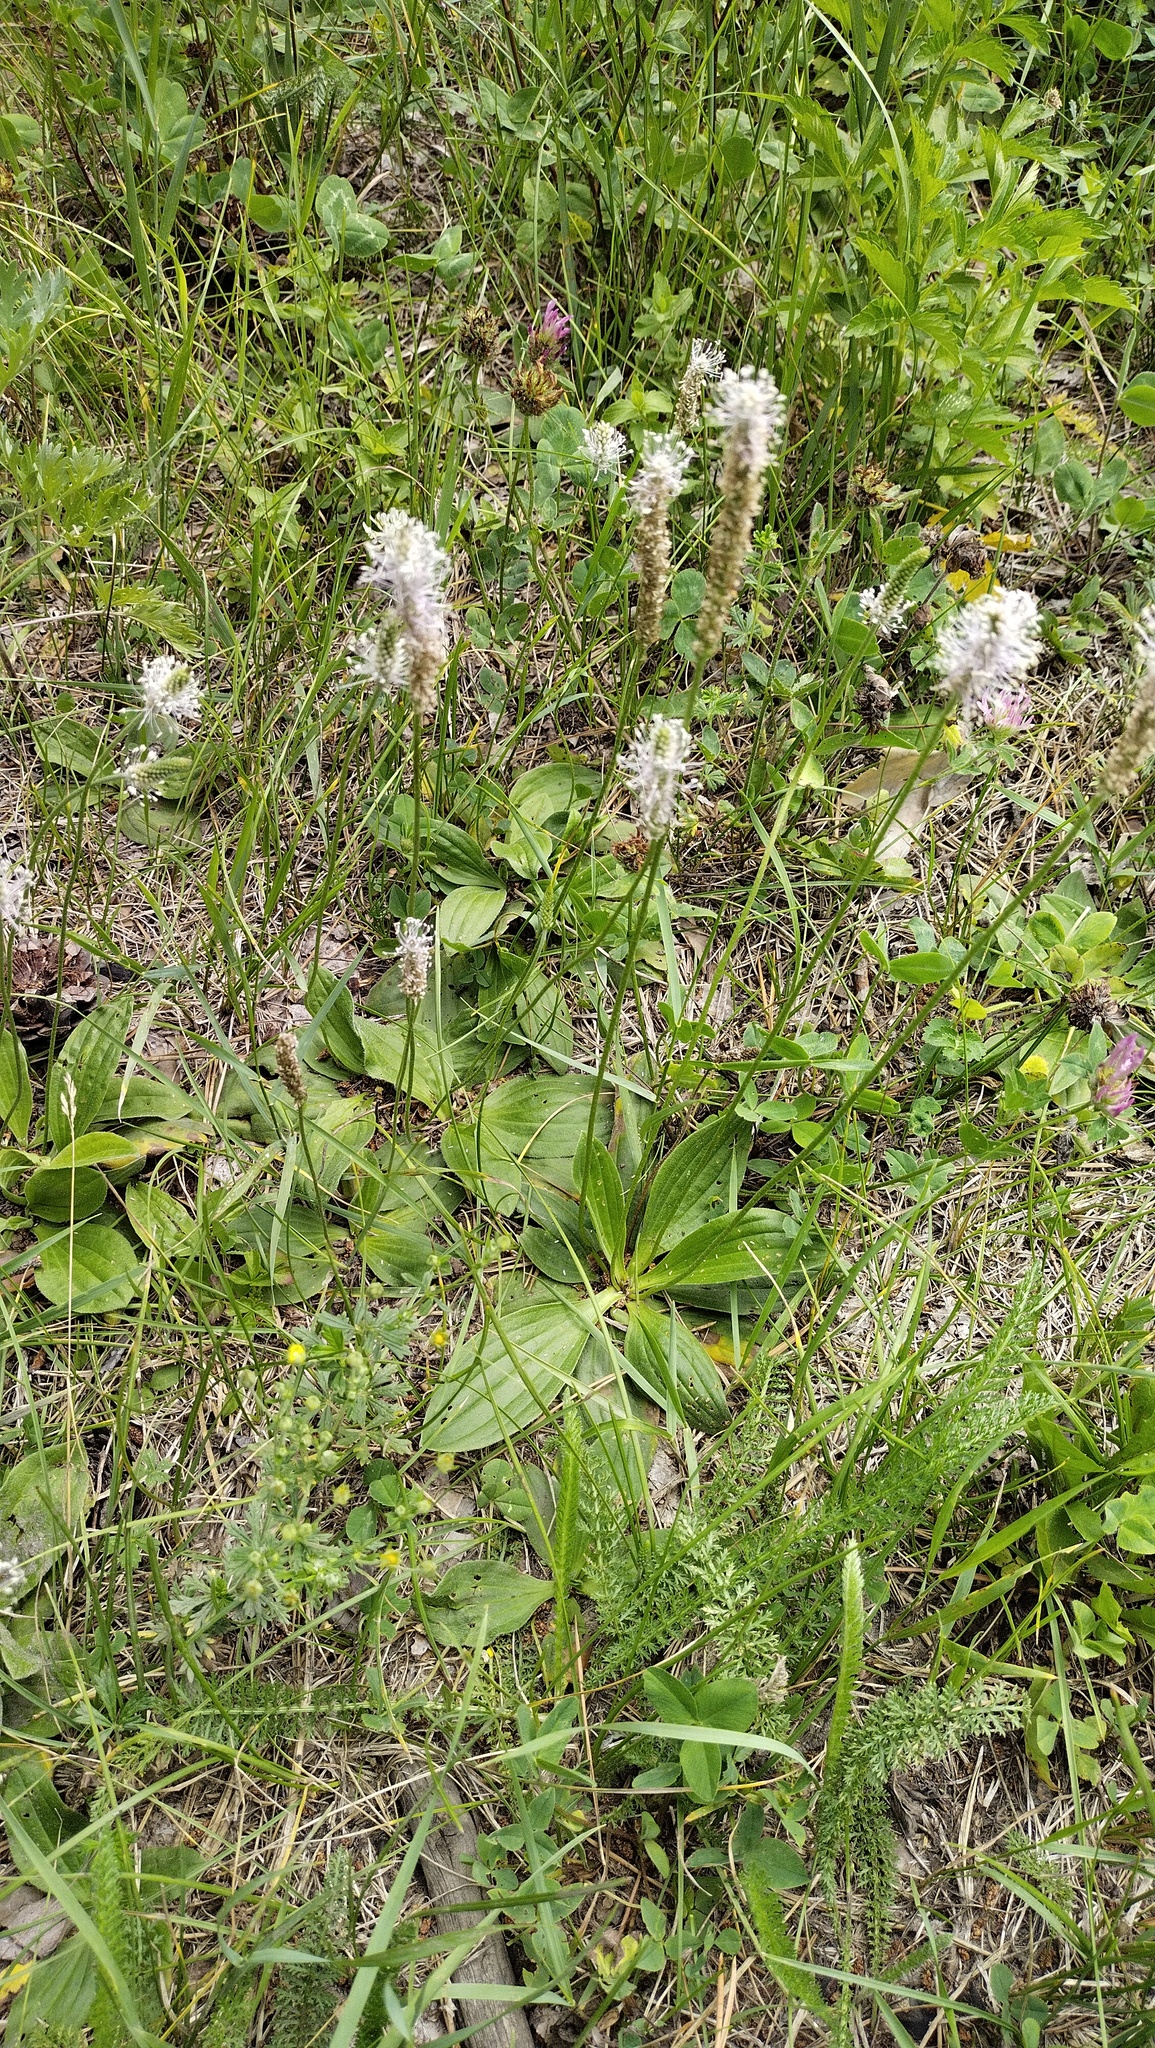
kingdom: Plantae
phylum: Tracheophyta
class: Magnoliopsida
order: Lamiales
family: Plantaginaceae
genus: Plantago
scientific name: Plantago media
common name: Hoary plantain
